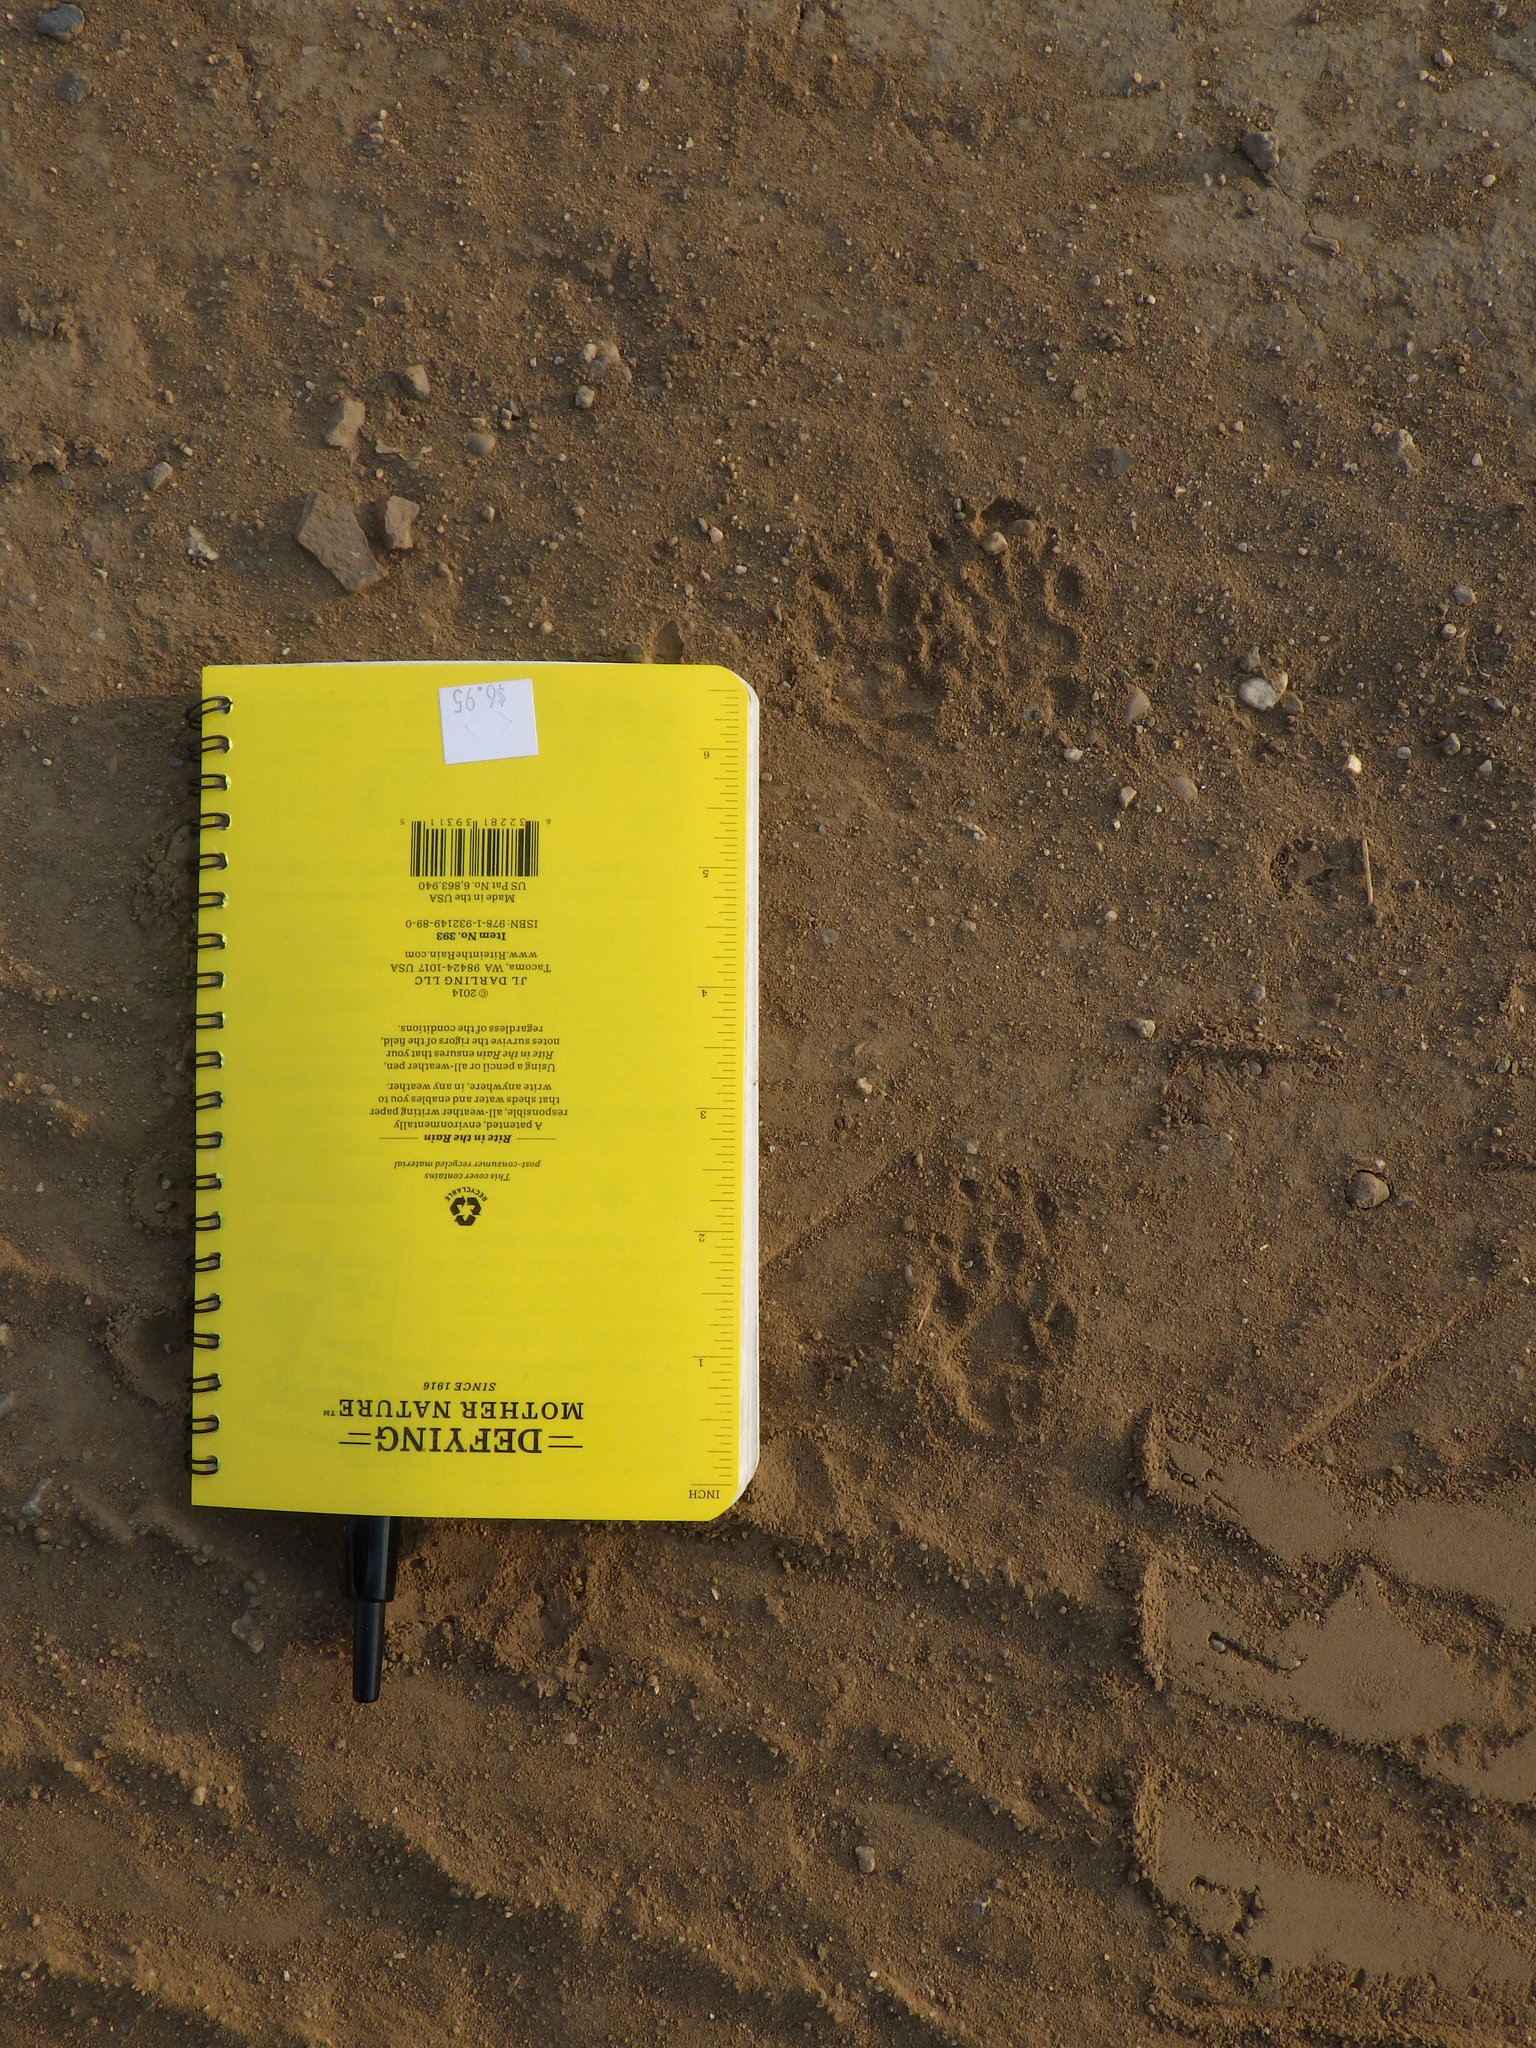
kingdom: Animalia
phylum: Chordata
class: Mammalia
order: Carnivora
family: Mephitidae
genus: Mephitis
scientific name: Mephitis mephitis
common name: Striped skunk
